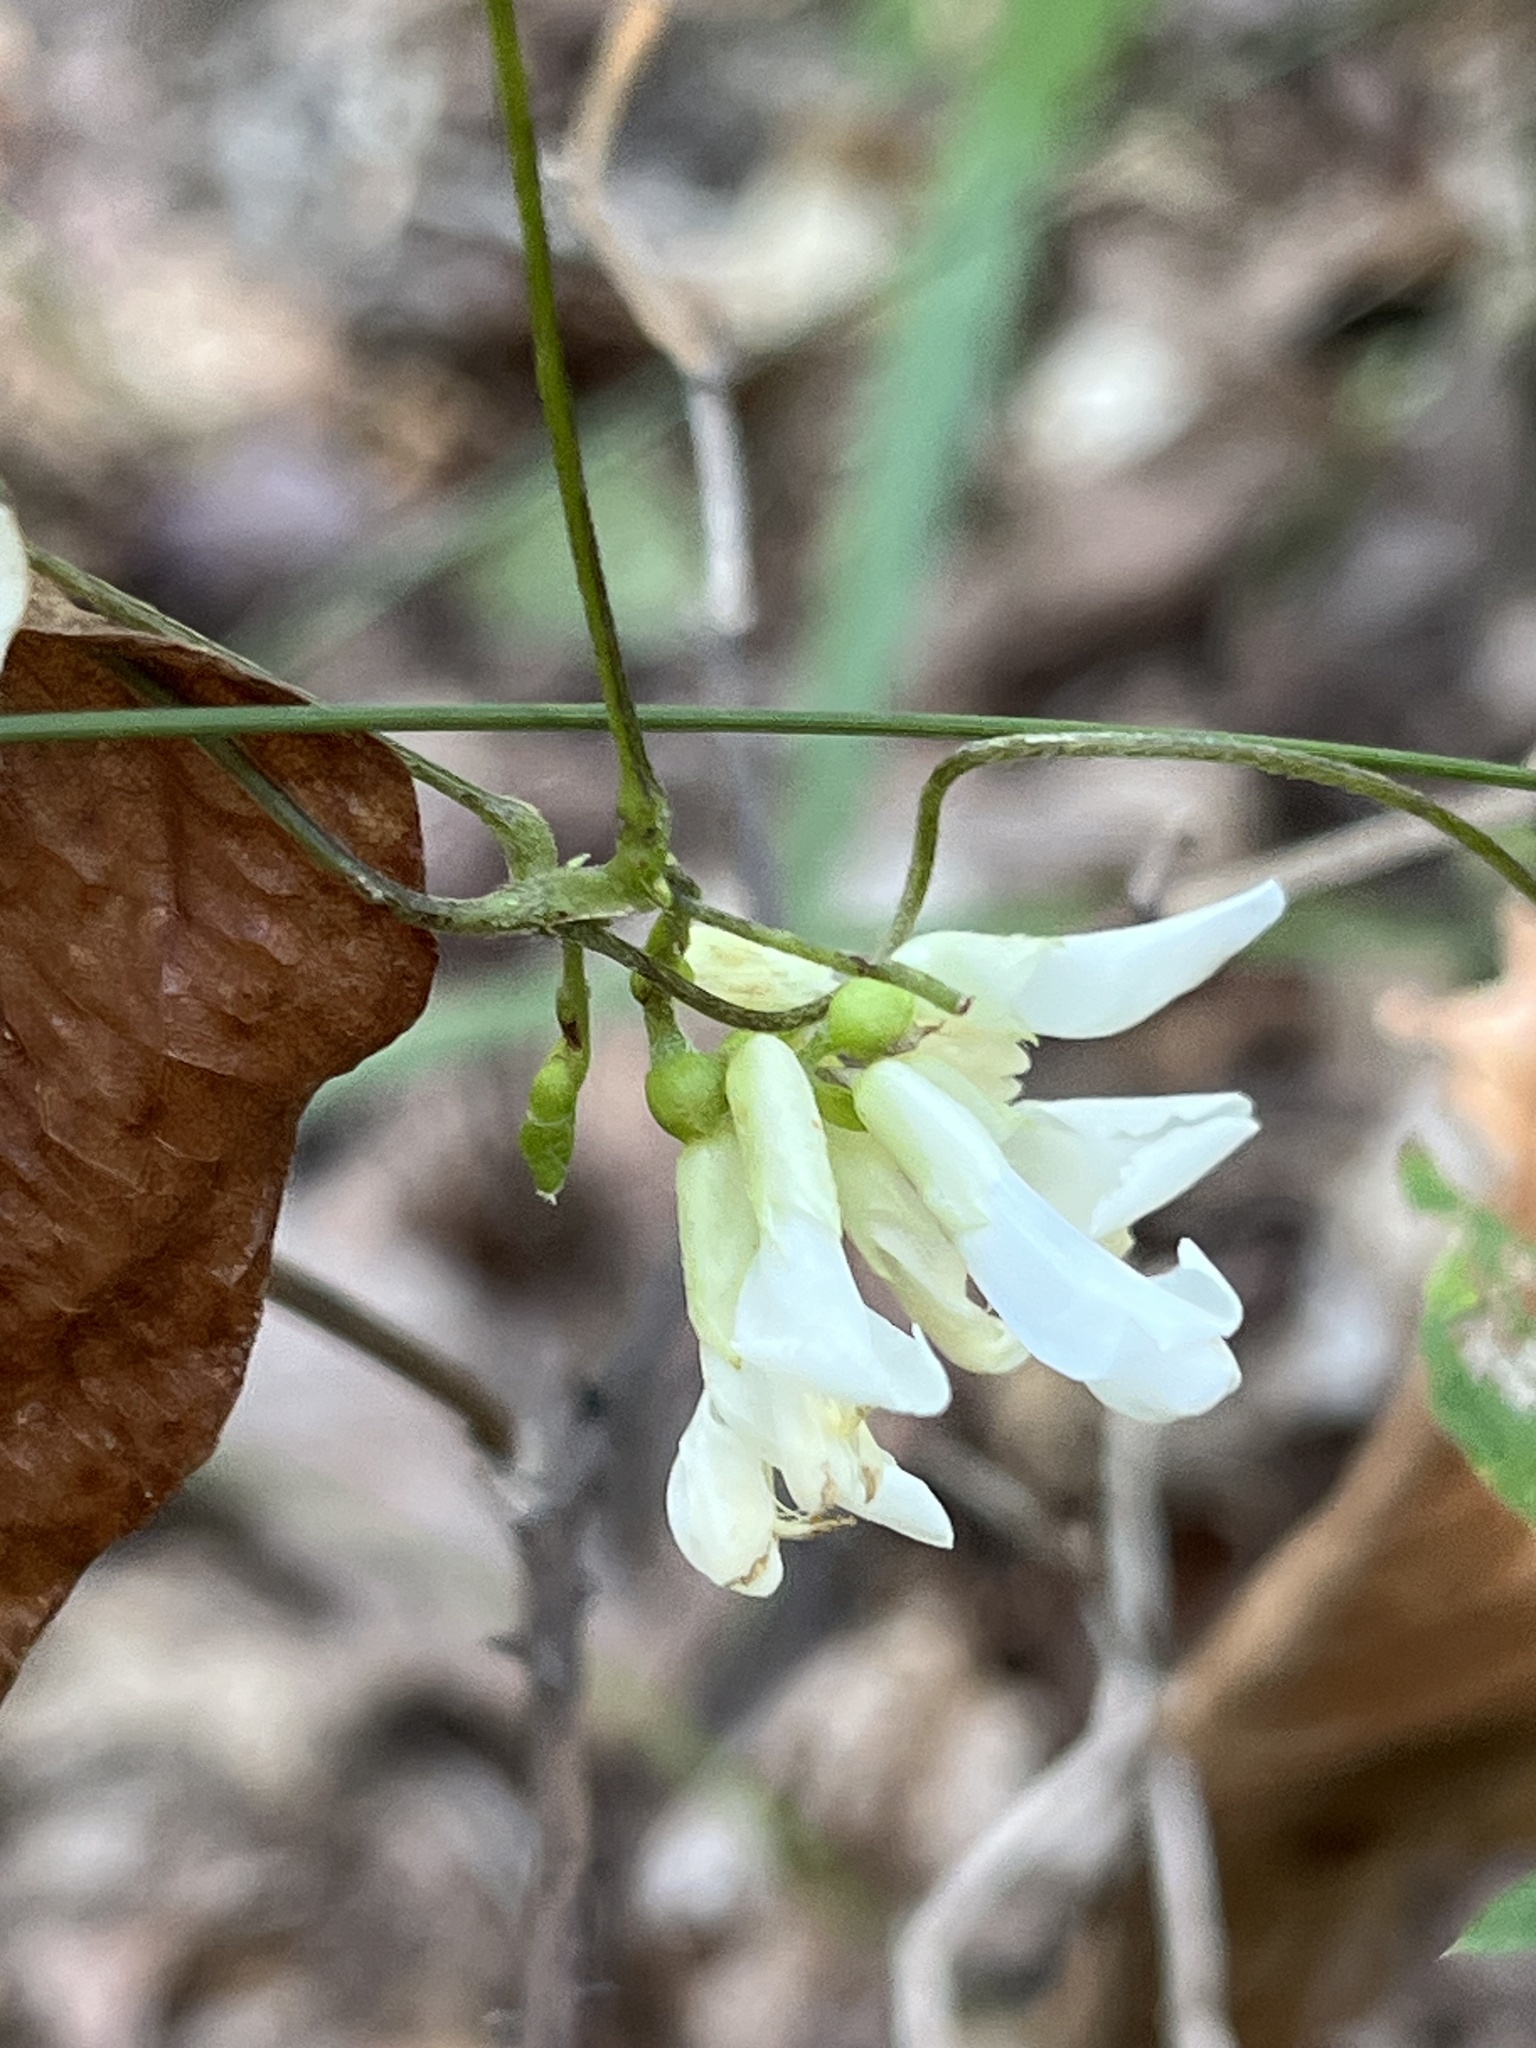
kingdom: Plantae
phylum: Tracheophyta
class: Magnoliopsida
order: Fabales
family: Fabaceae
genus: Amphicarpaea
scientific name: Amphicarpaea bracteata
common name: American hog peanut
